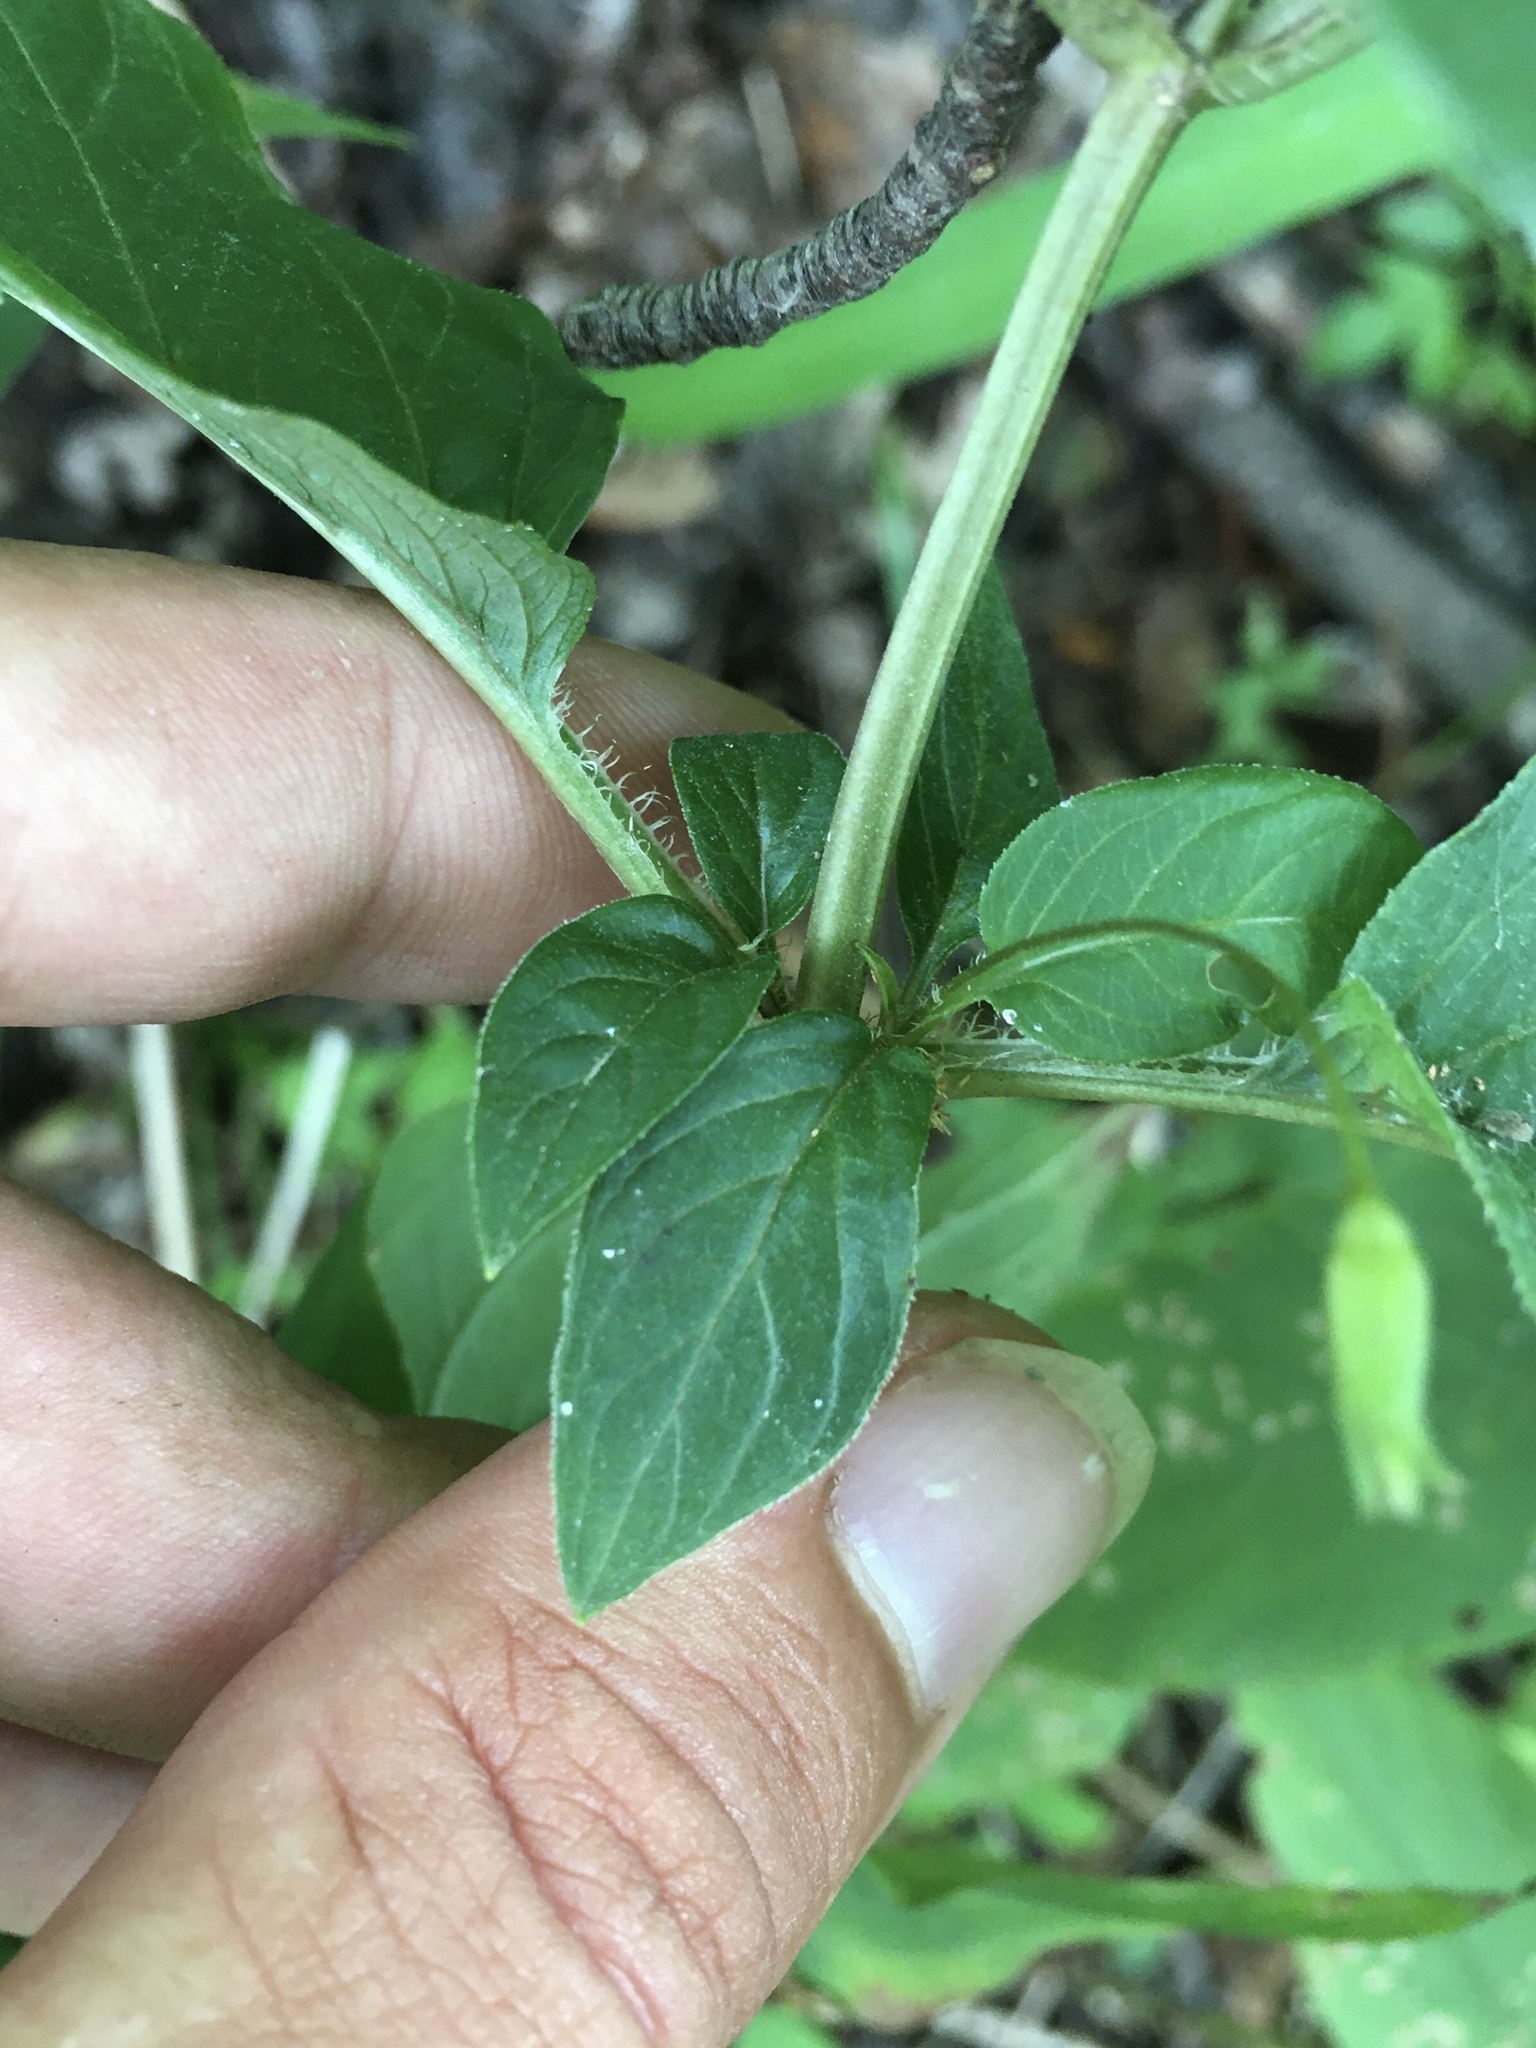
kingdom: Plantae
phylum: Tracheophyta
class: Magnoliopsida
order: Ericales
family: Primulaceae
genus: Lysimachia
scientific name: Lysimachia ciliata
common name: Fringed loosestrife
